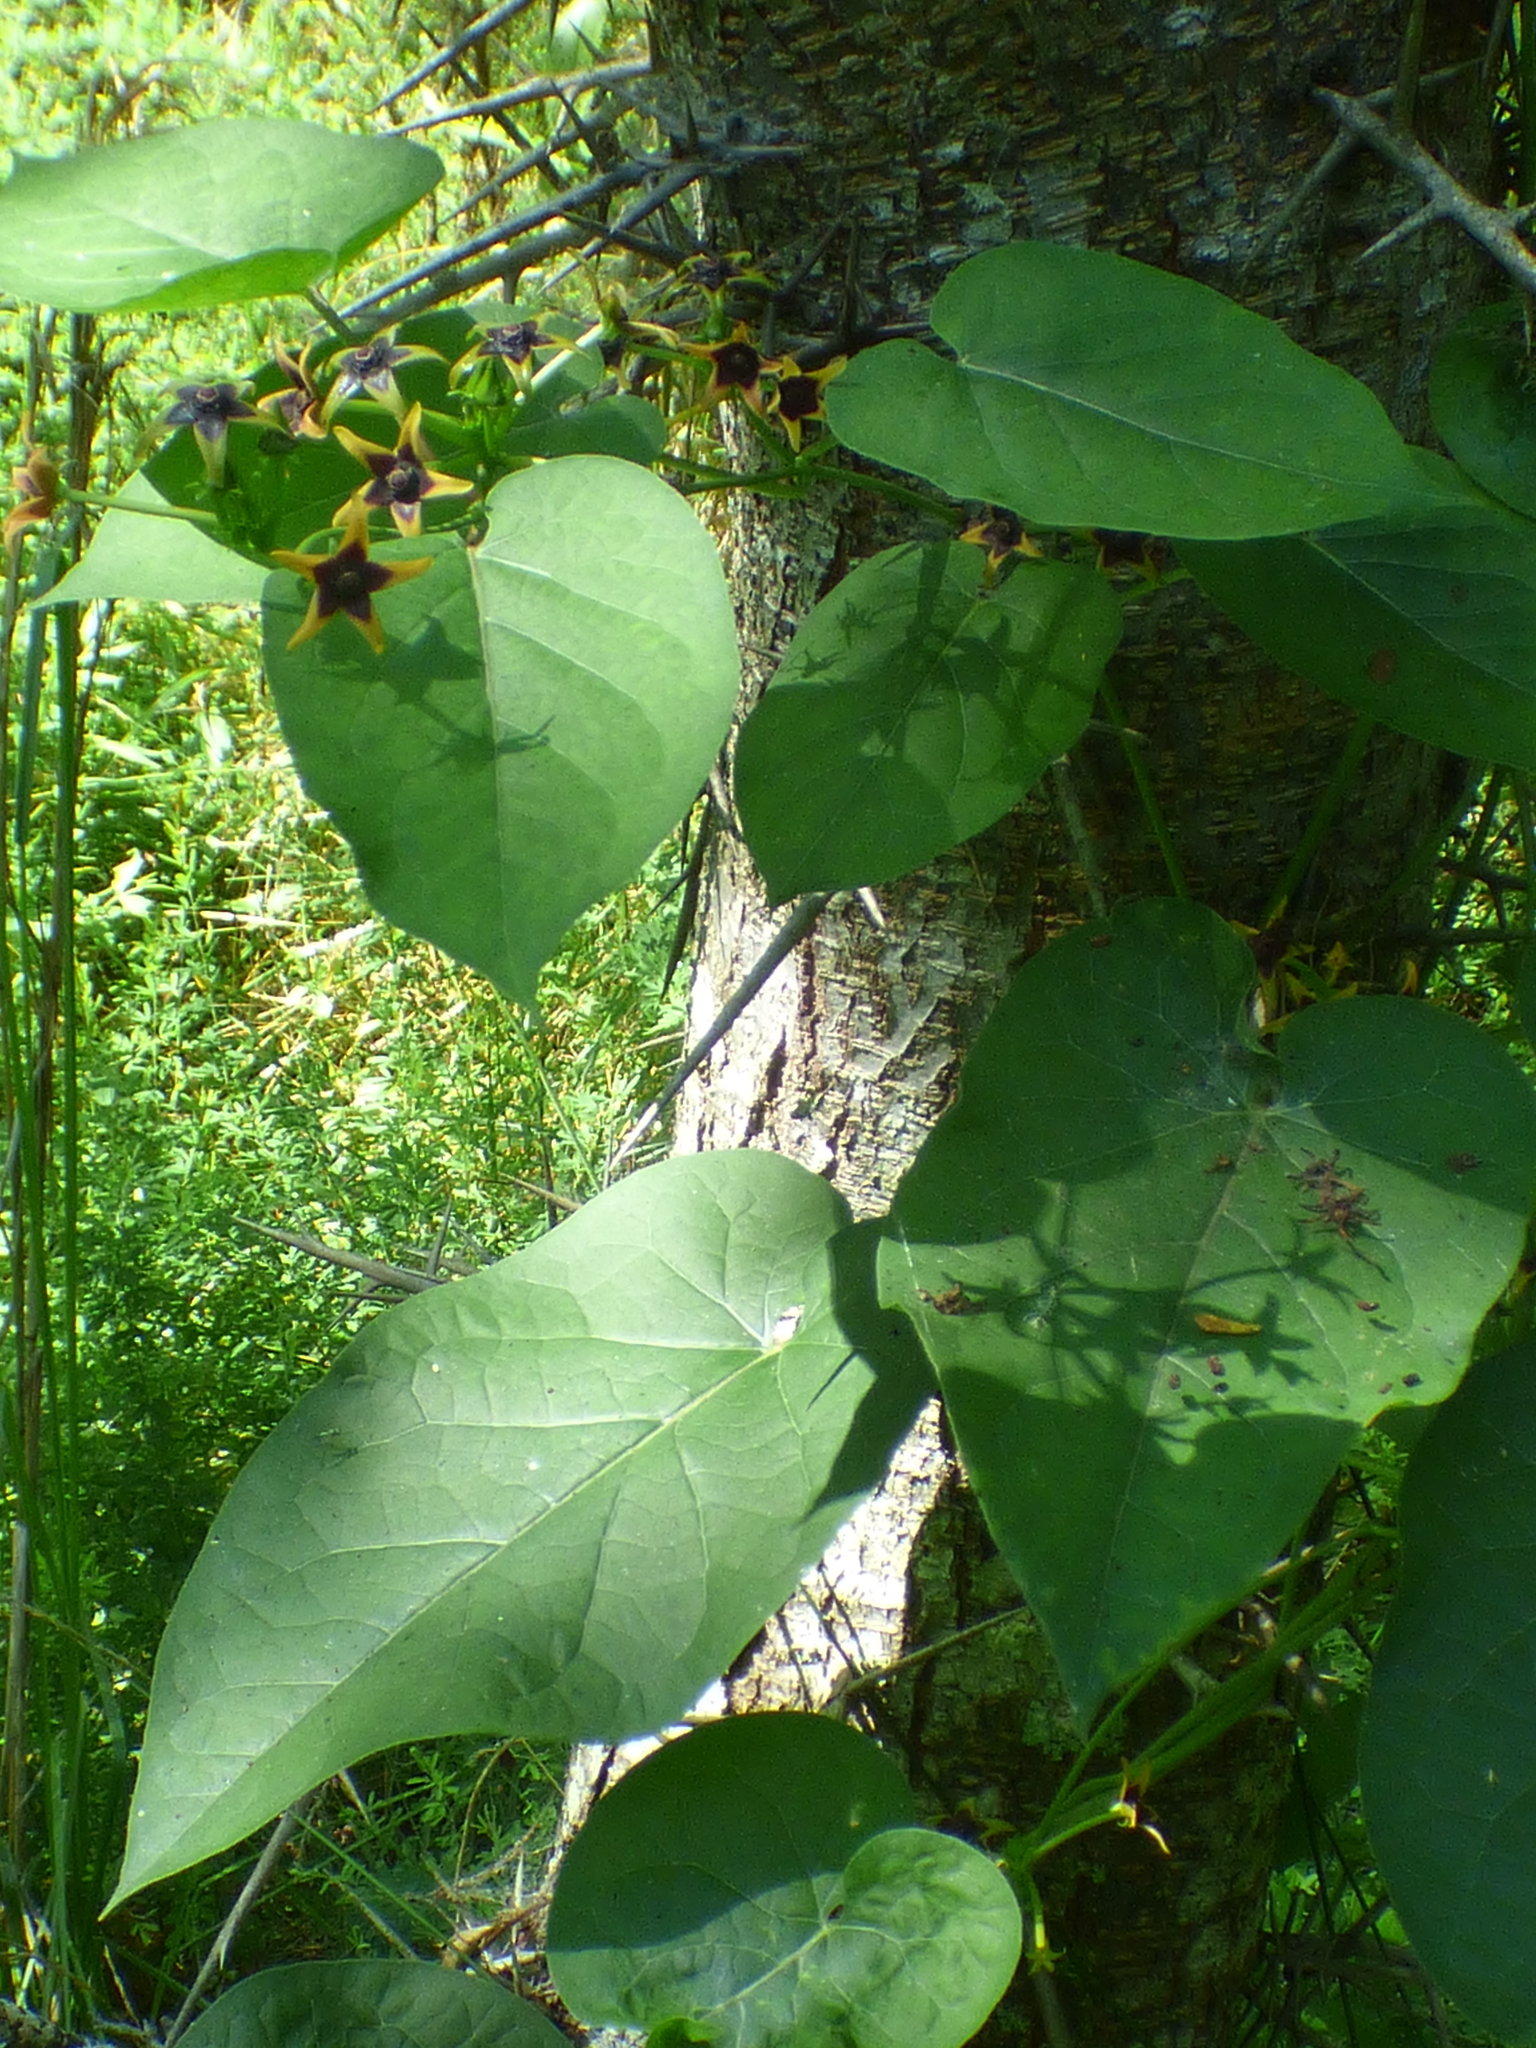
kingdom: Plantae
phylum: Tracheophyta
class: Magnoliopsida
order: Gentianales
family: Apocynaceae
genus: Gonolobus
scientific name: Gonolobus suberosus
